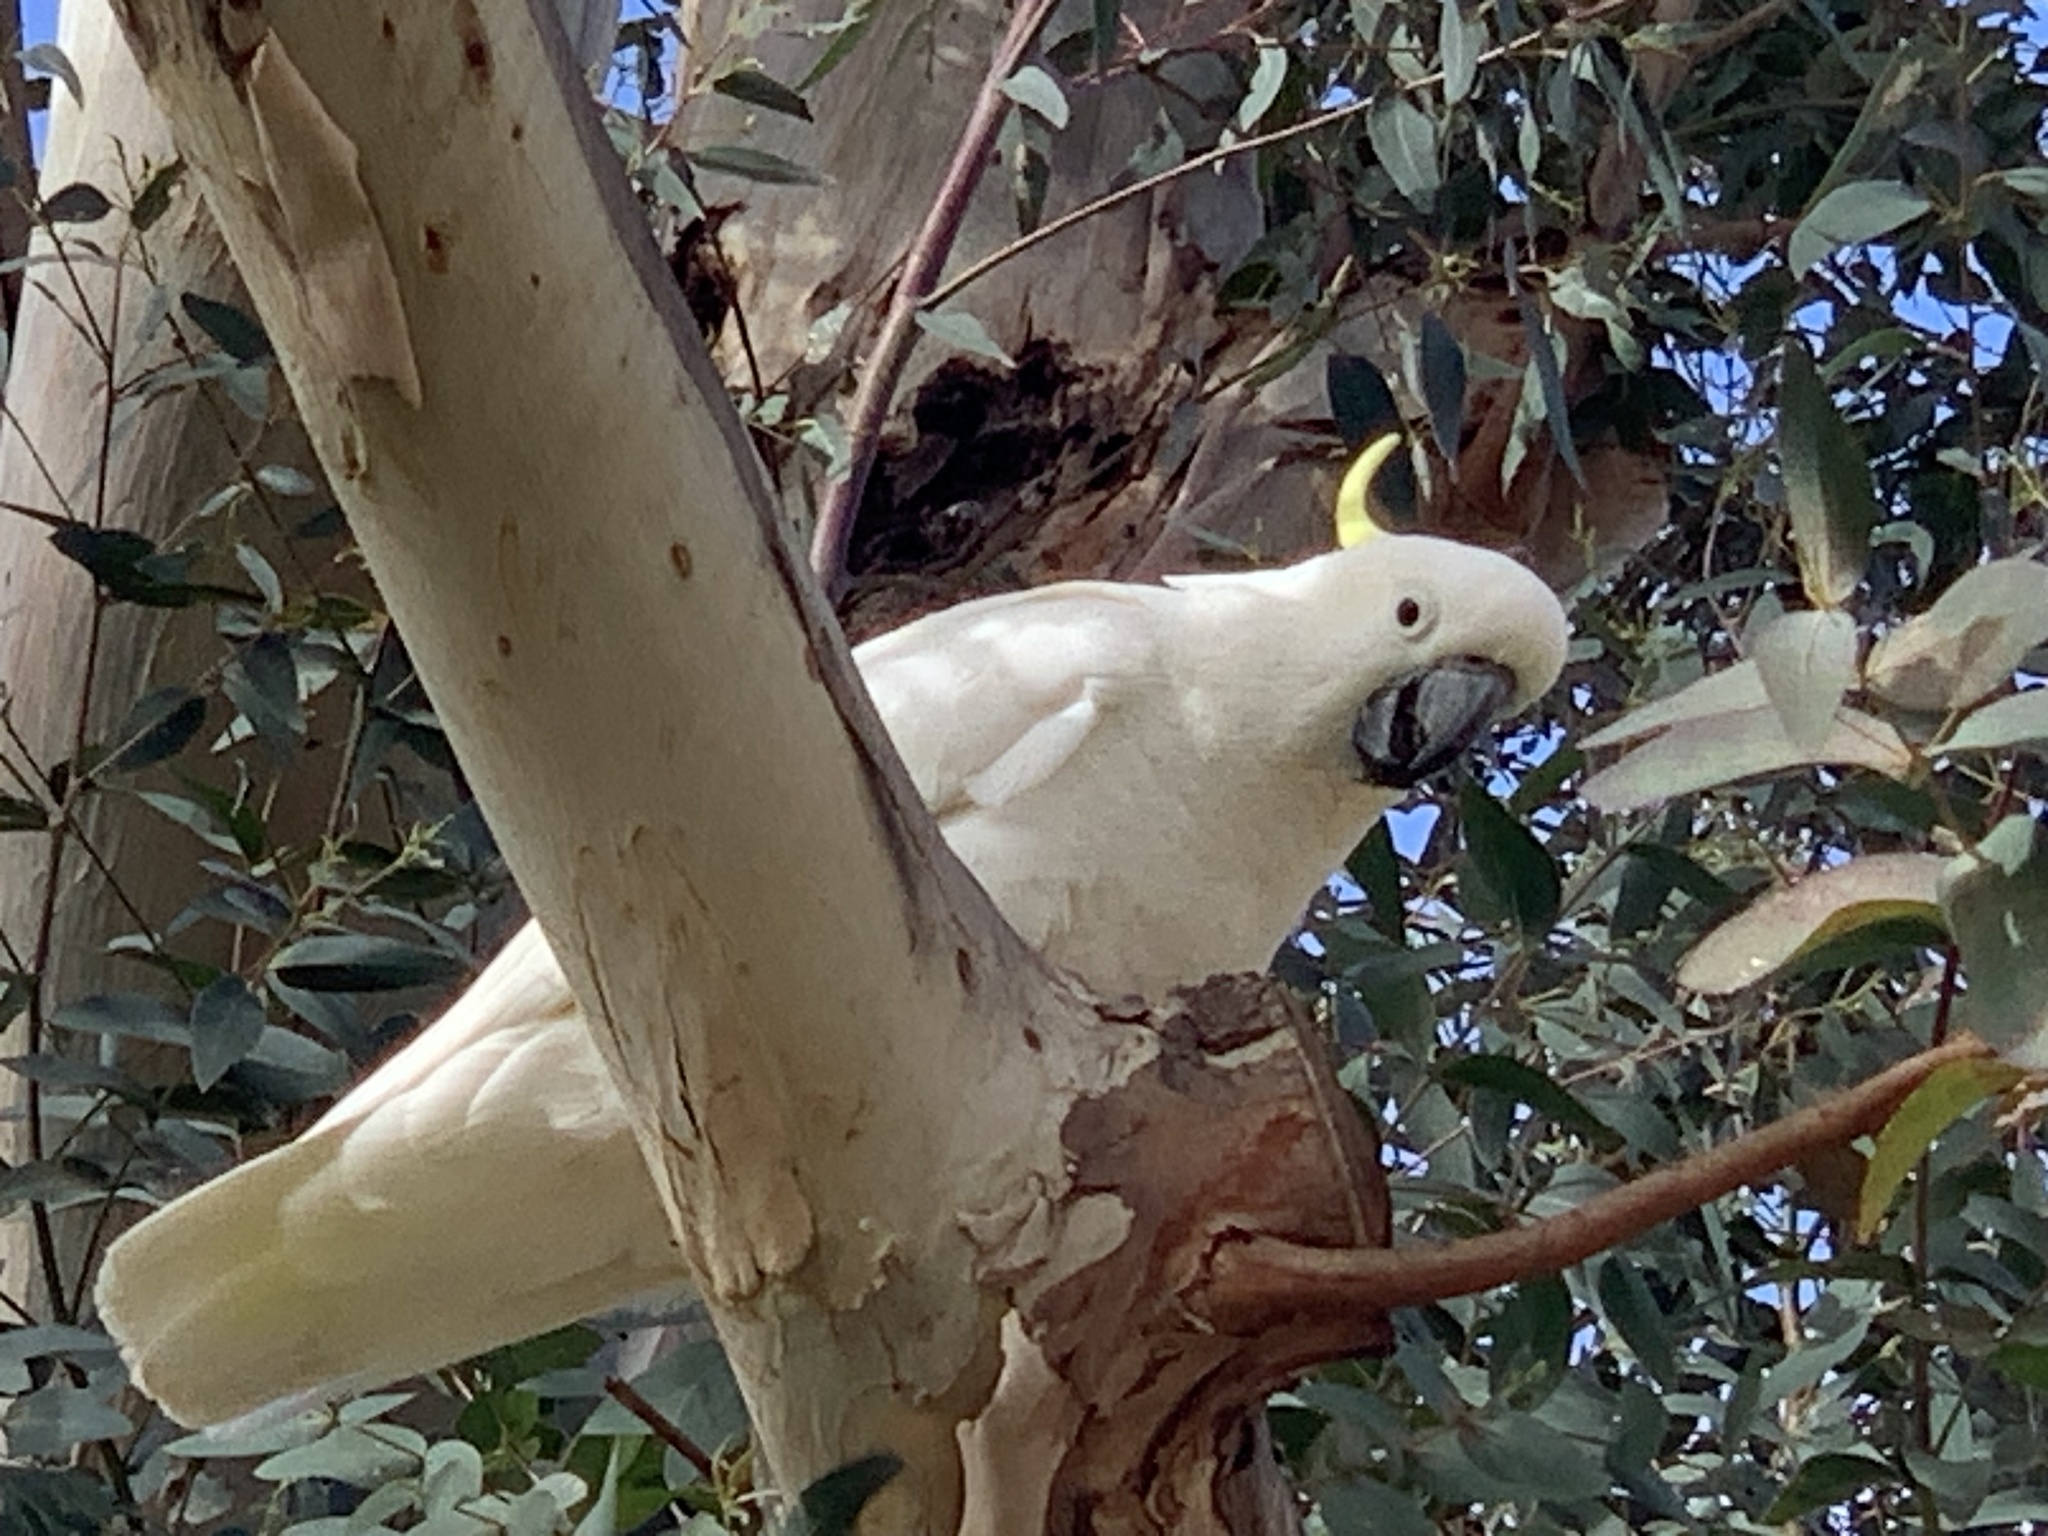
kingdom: Animalia
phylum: Chordata
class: Aves
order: Psittaciformes
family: Psittacidae
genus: Cacatua
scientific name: Cacatua galerita
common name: Sulphur-crested cockatoo
